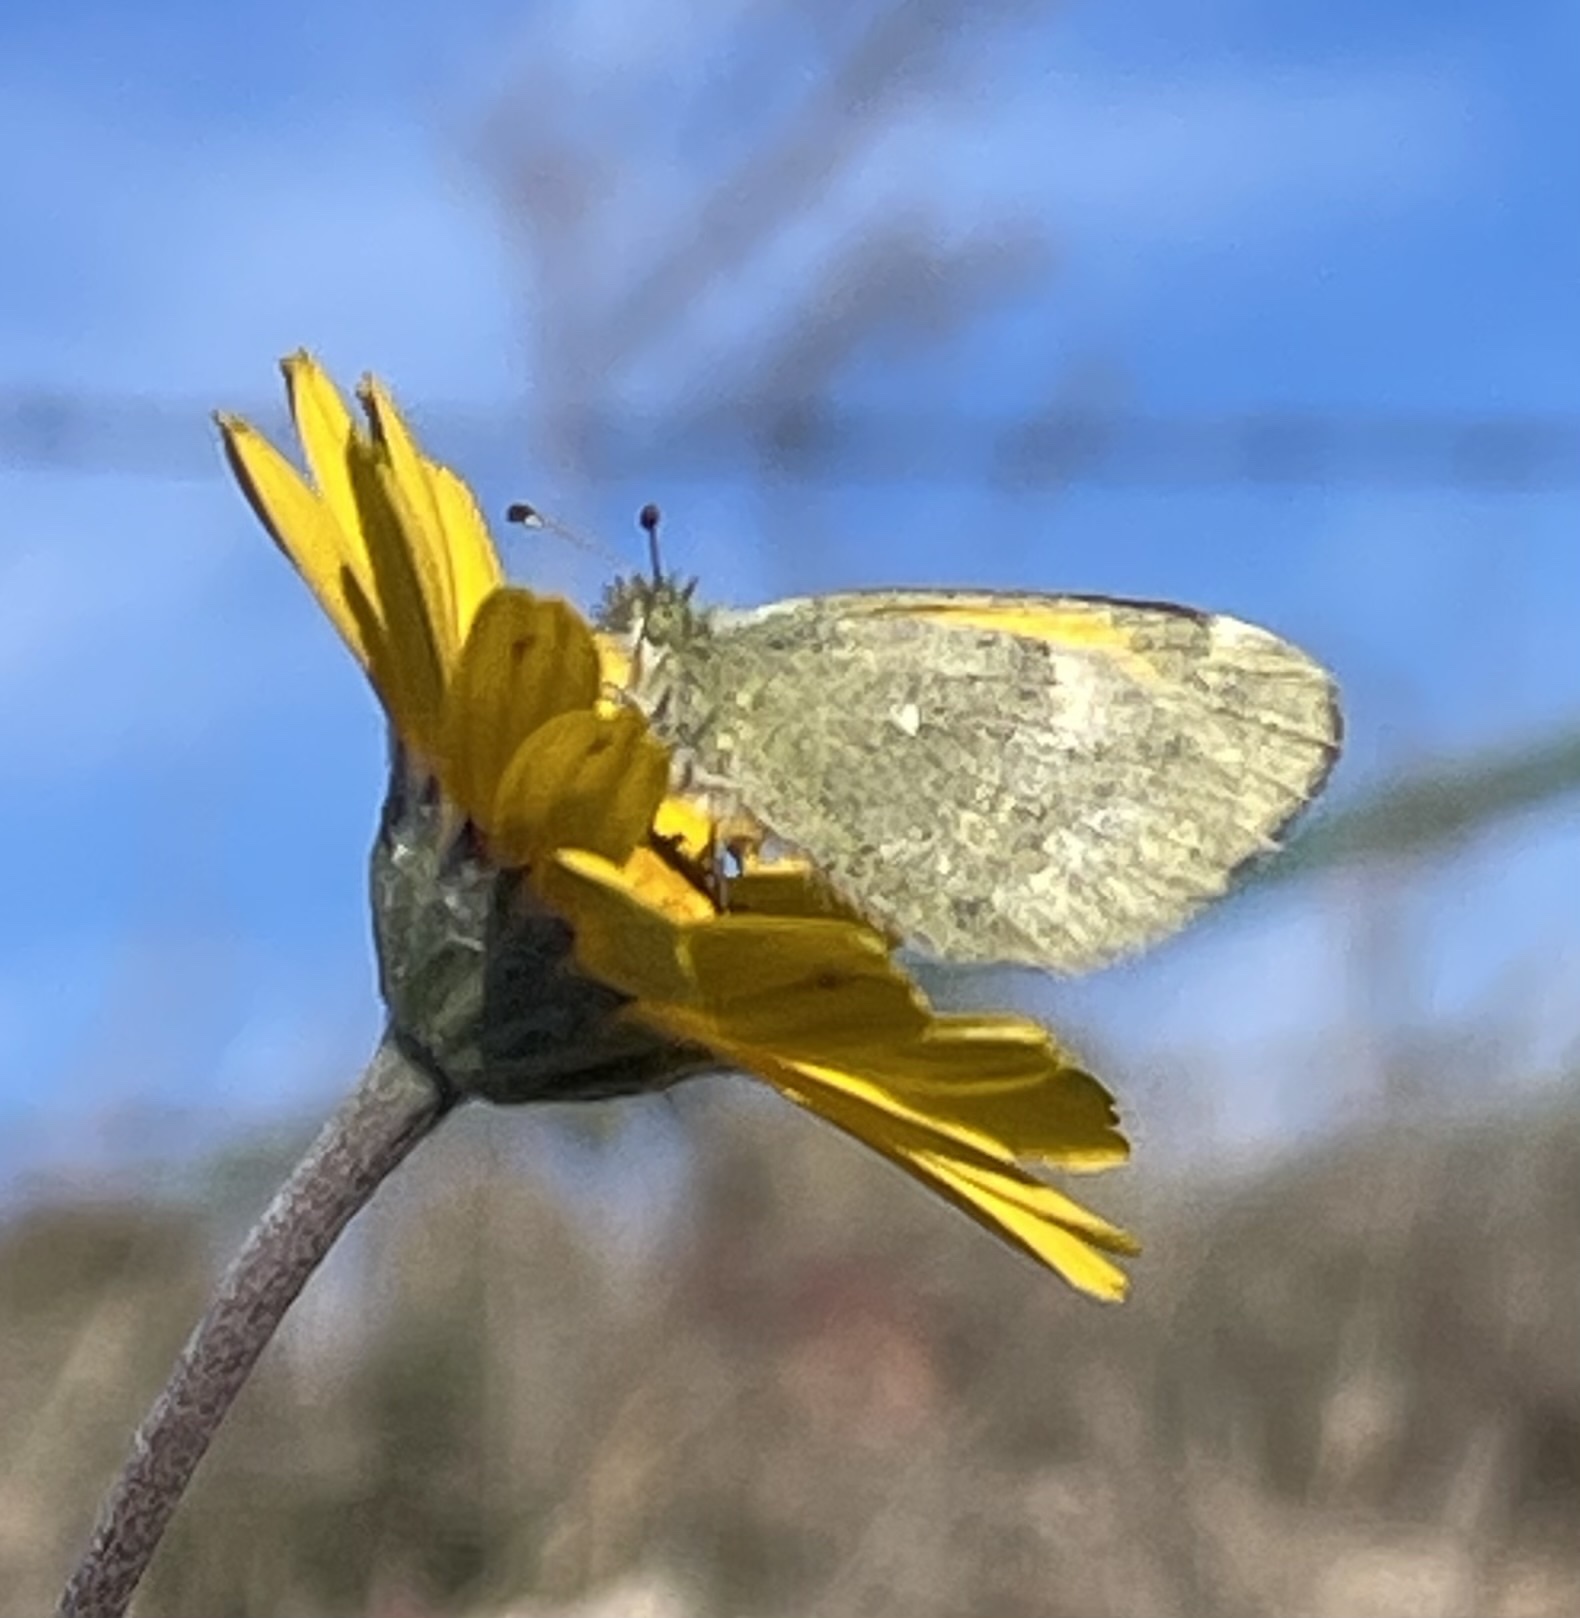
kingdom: Animalia
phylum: Arthropoda
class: Insecta
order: Lepidoptera
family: Pieridae
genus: Nathalis
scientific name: Nathalis iole
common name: Dainty sulphur
